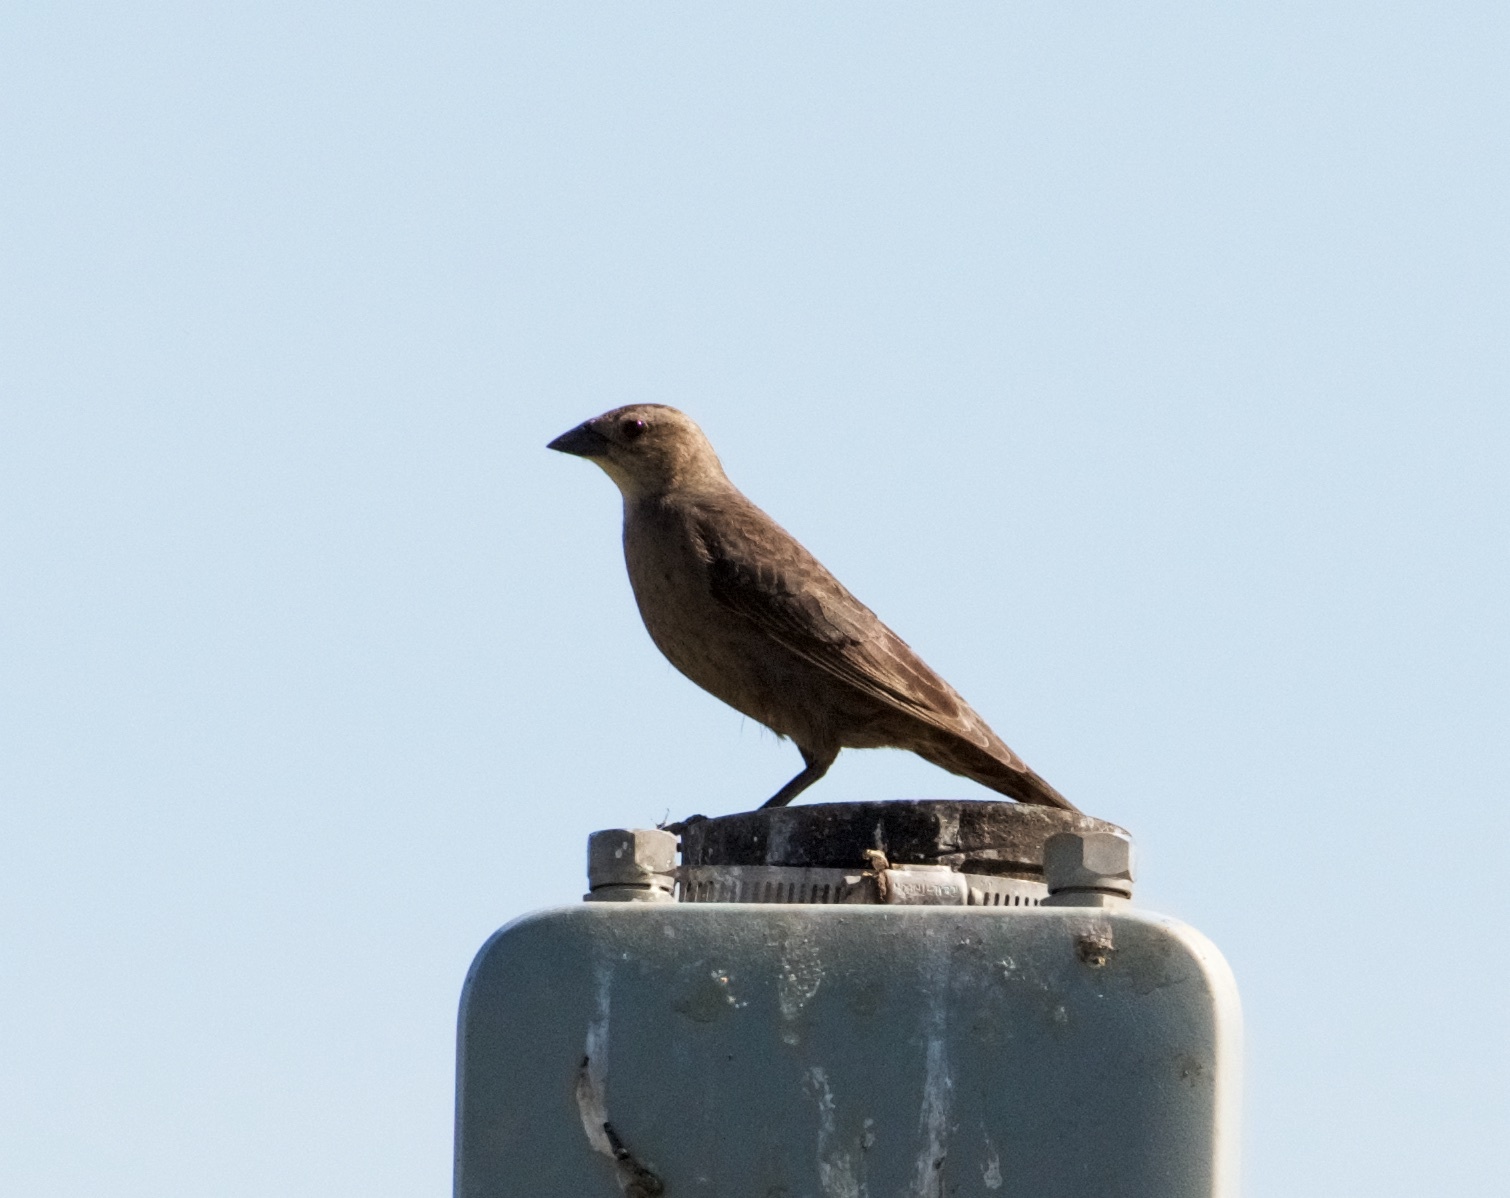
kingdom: Animalia
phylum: Chordata
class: Aves
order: Passeriformes
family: Icteridae
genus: Molothrus
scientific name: Molothrus ater
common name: Brown-headed cowbird
